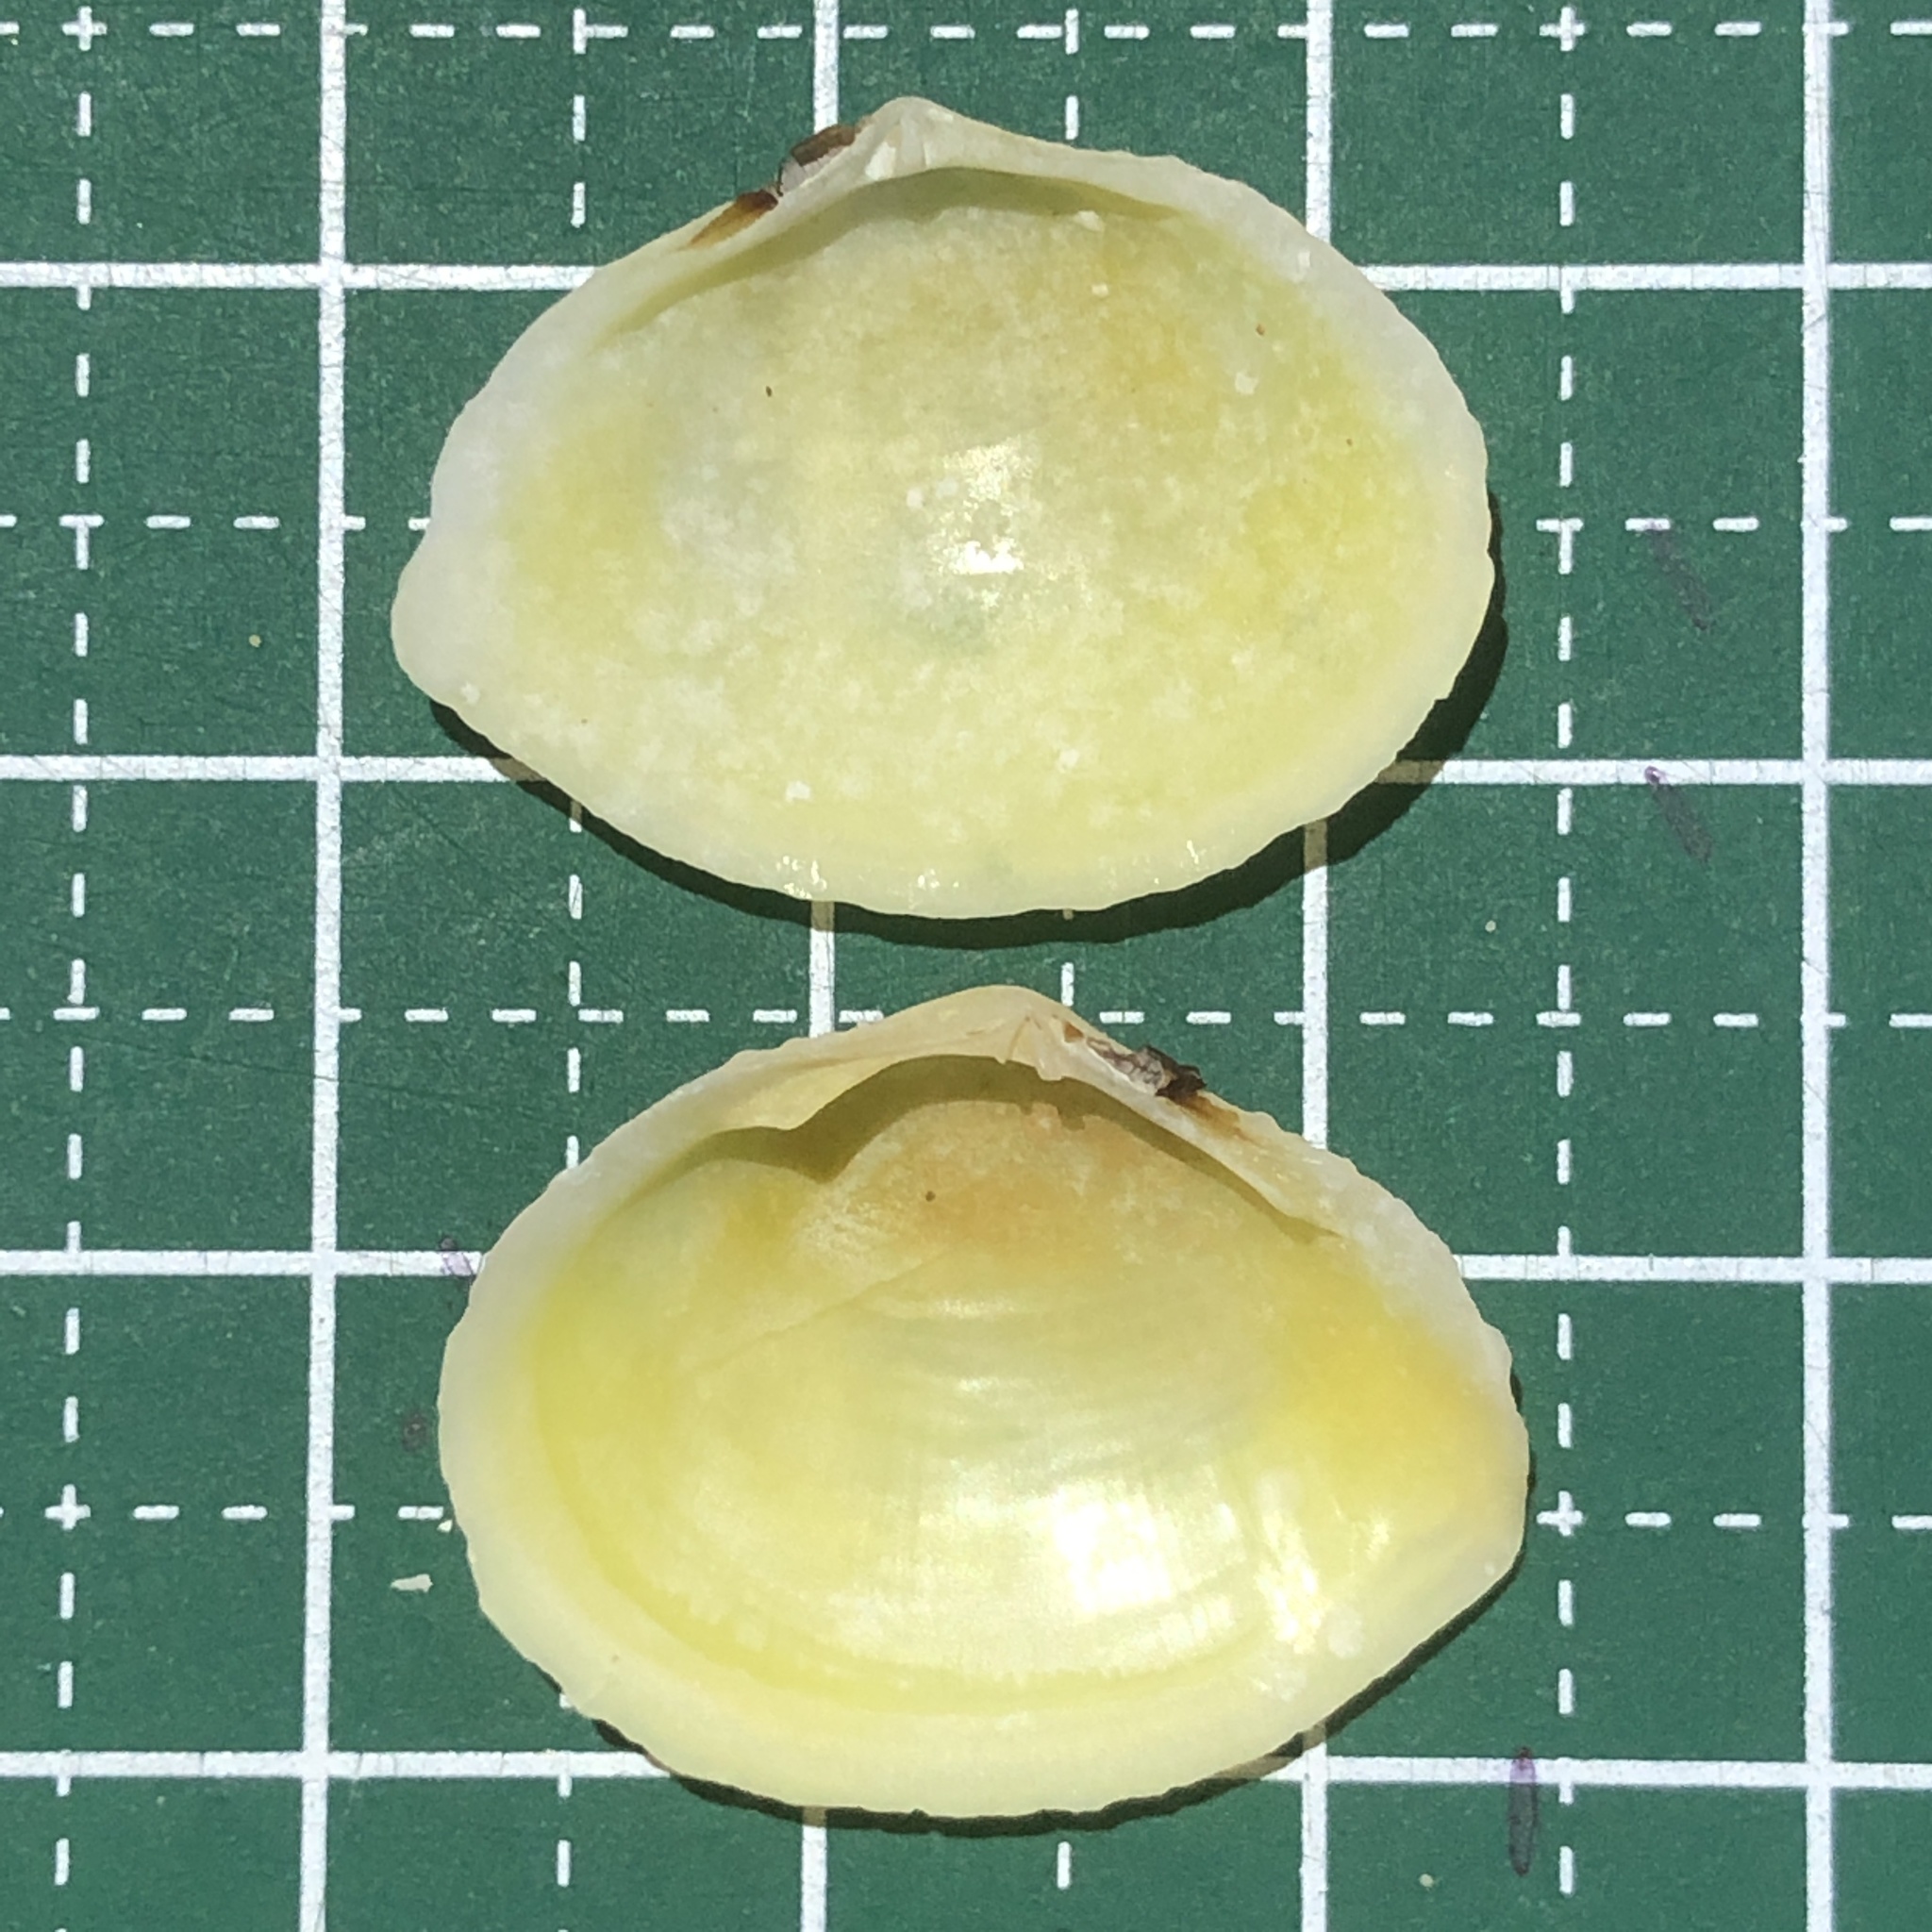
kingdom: Animalia
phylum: Mollusca
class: Bivalvia
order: Cardiida
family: Tellinidae
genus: Quidnipagus
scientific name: Quidnipagus palatam
